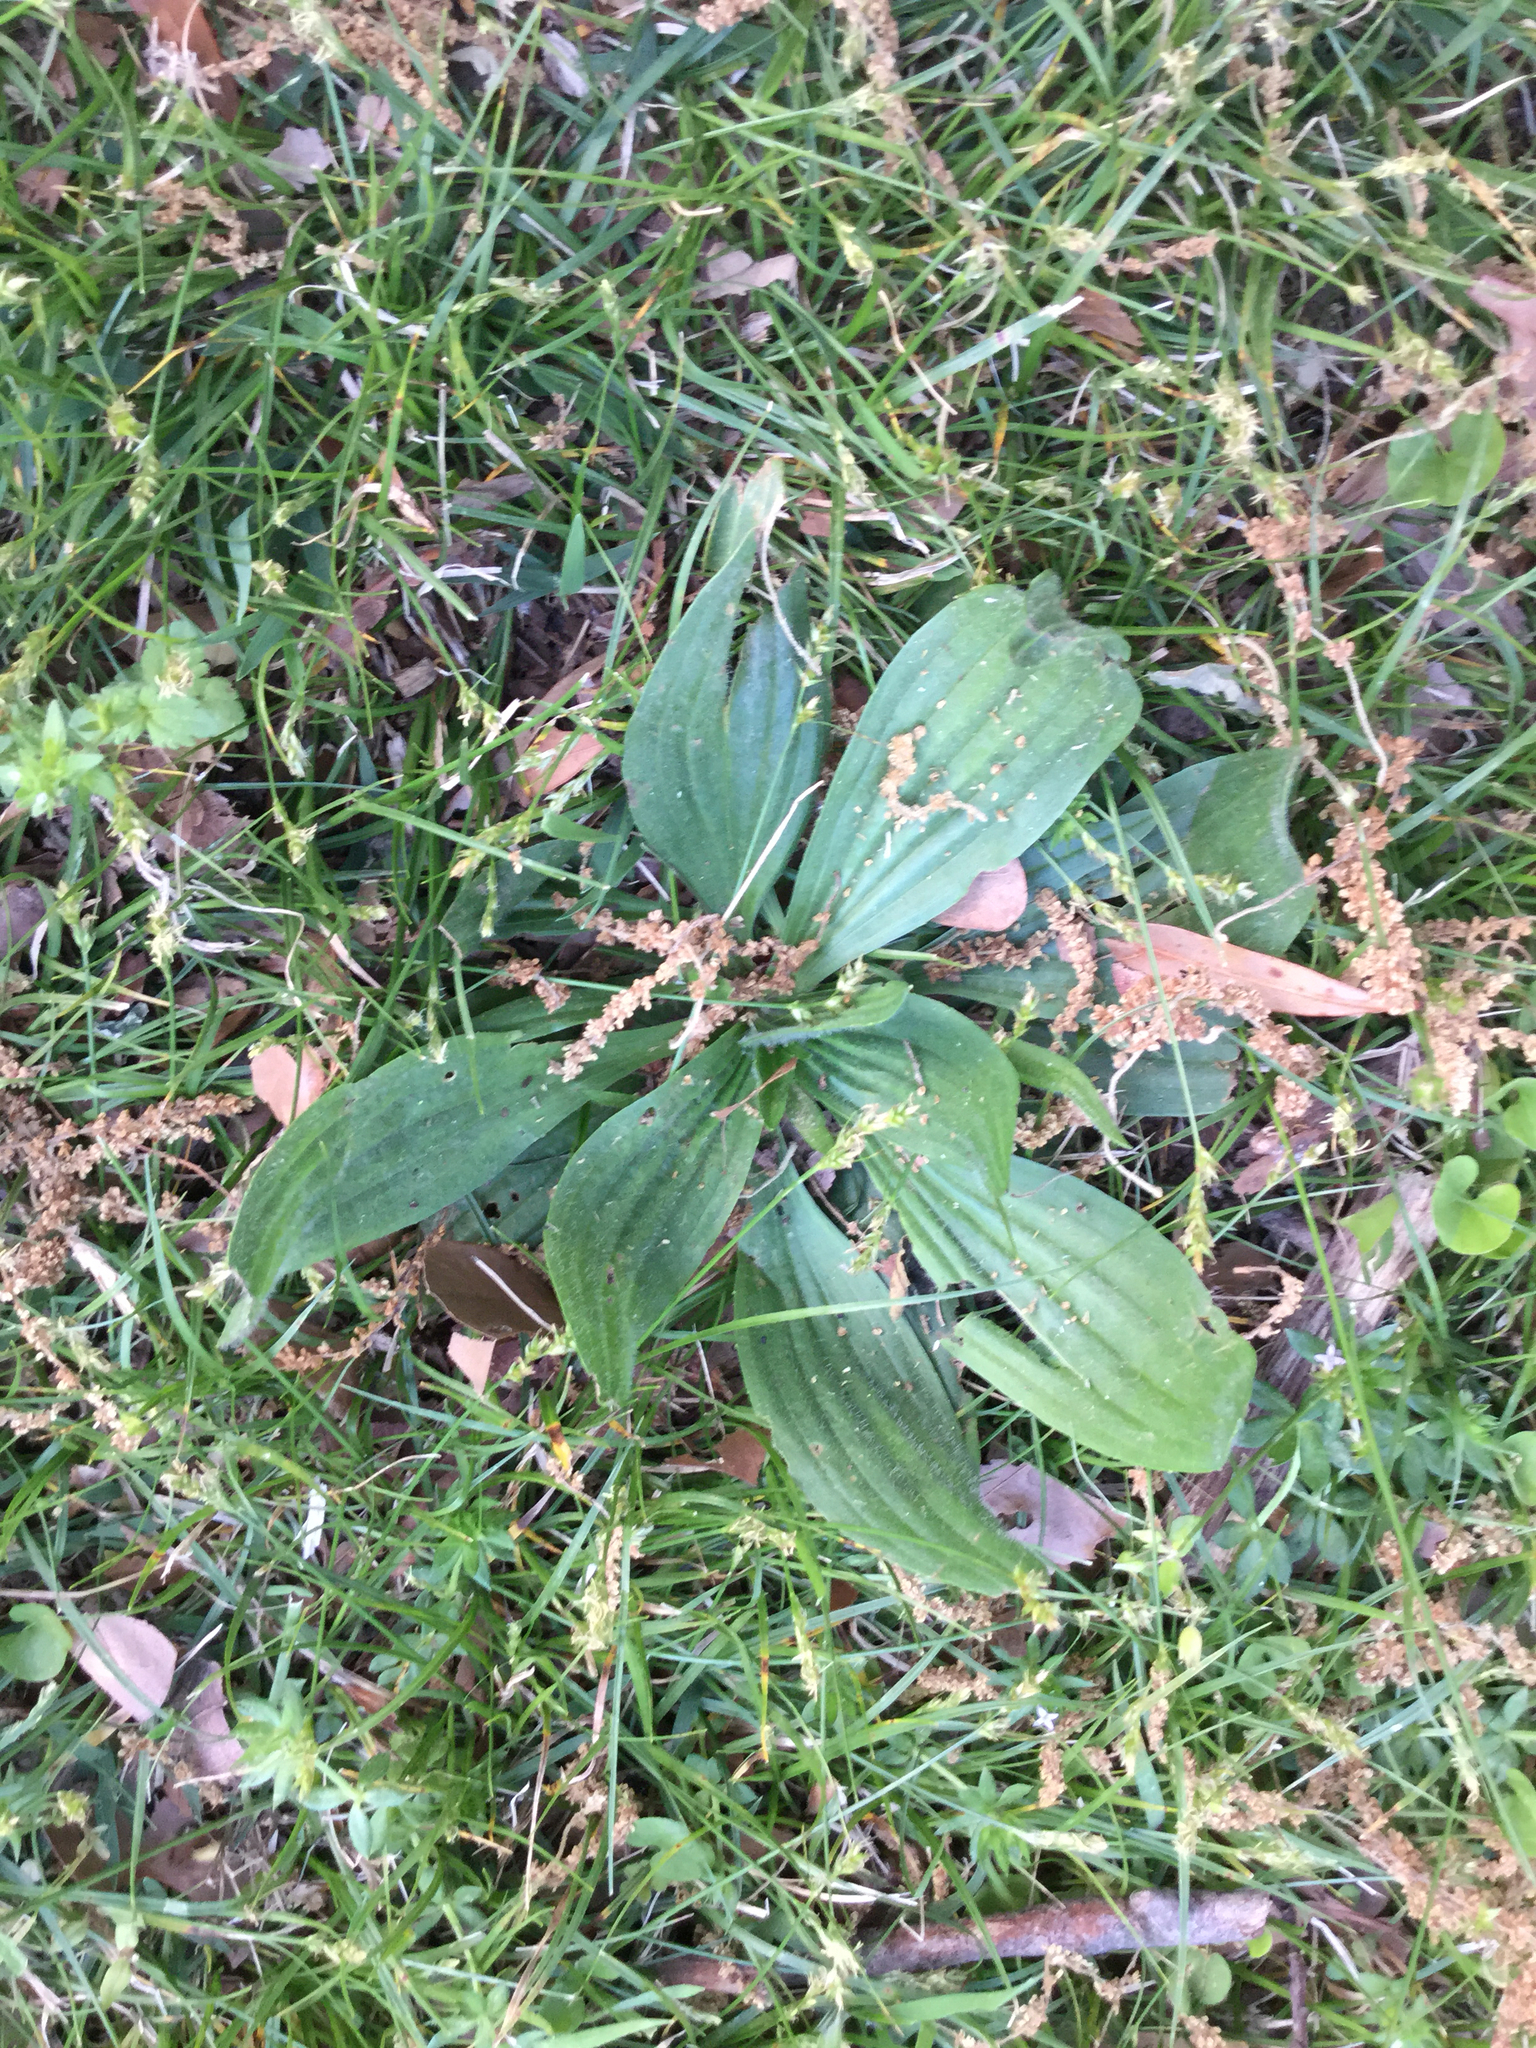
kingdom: Plantae
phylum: Tracheophyta
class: Magnoliopsida
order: Lamiales
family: Plantaginaceae
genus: Plantago
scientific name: Plantago lanceolata
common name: Ribwort plantain
